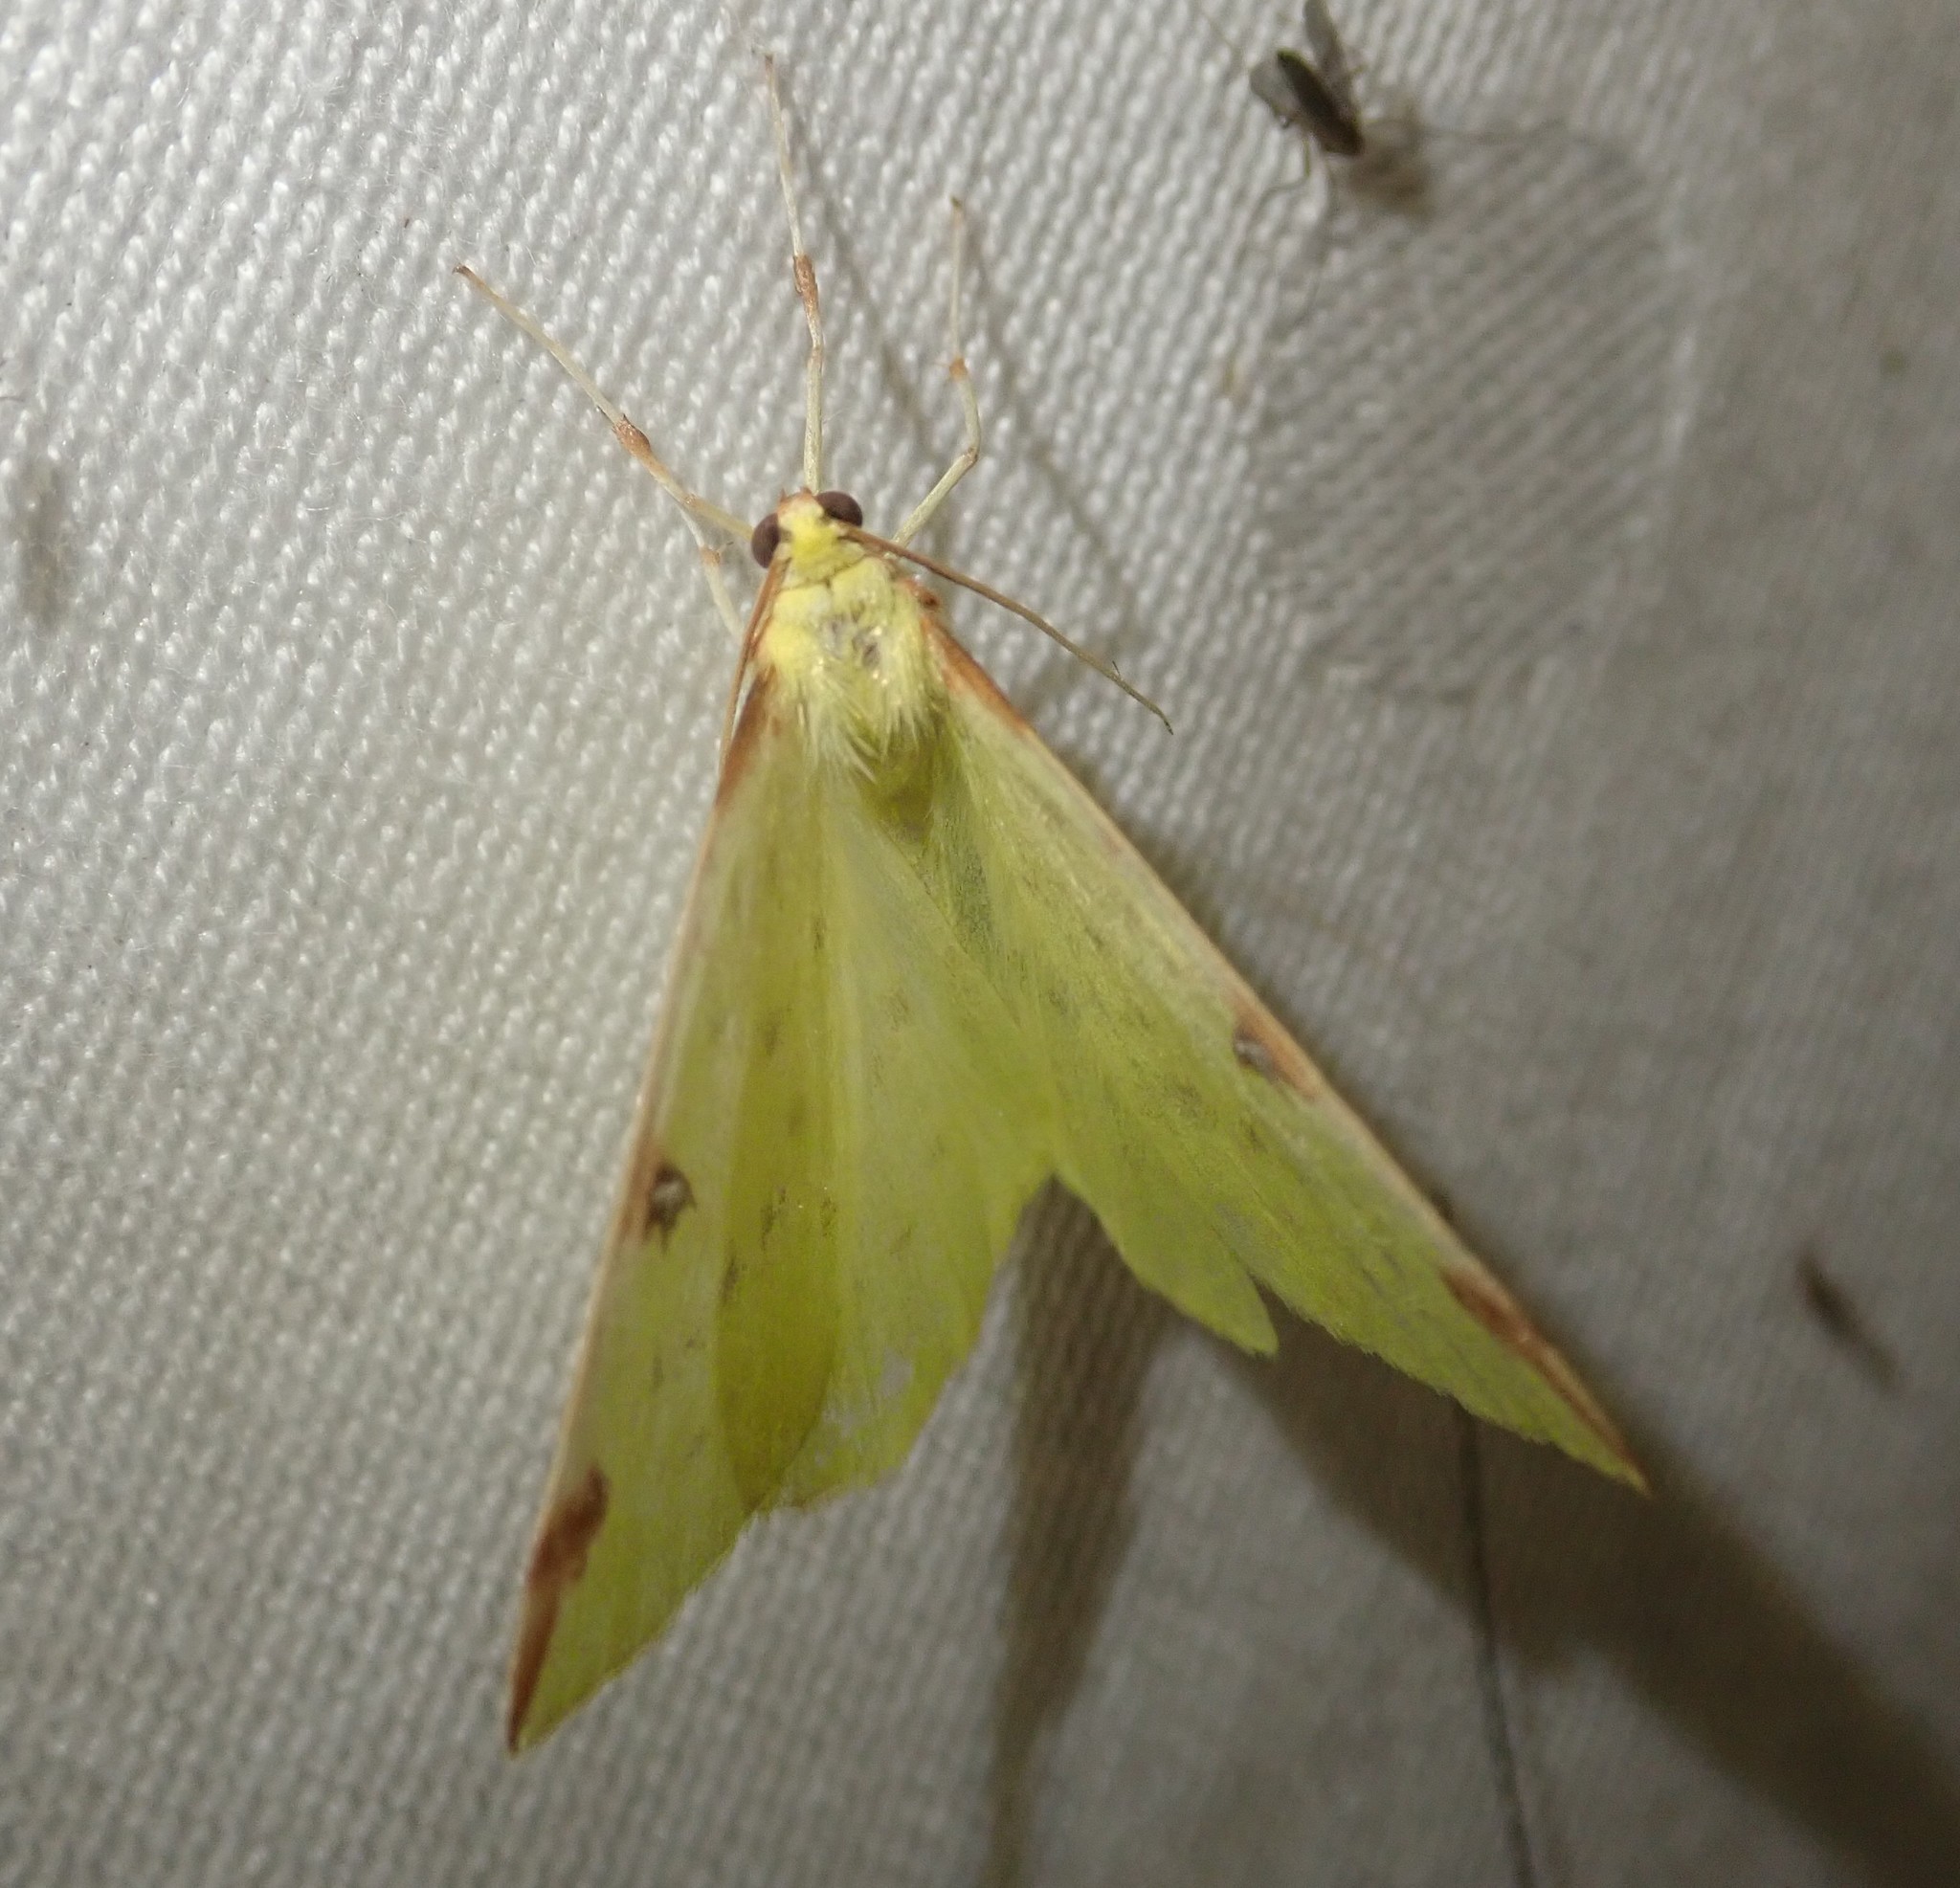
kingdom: Animalia
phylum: Arthropoda
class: Insecta
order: Lepidoptera
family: Geometridae
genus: Opisthograptis
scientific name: Opisthograptis luteolata
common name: Brimstone moth
